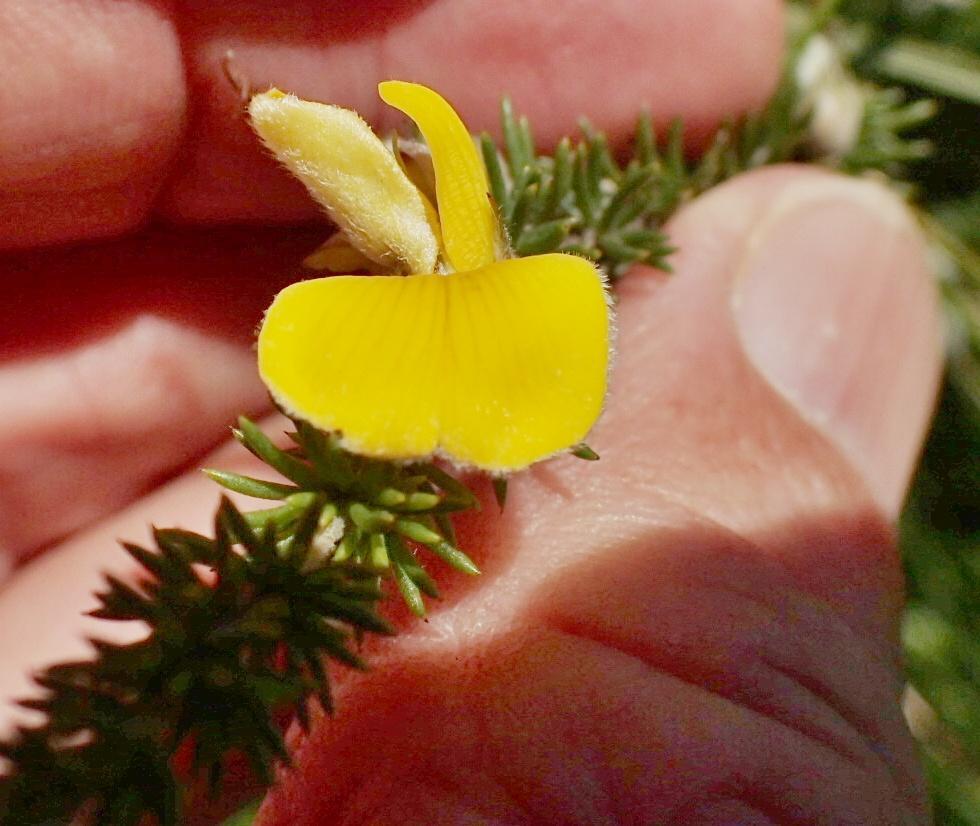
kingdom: Plantae
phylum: Tracheophyta
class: Magnoliopsida
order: Fabales
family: Fabaceae
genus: Aspalathus
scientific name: Aspalathus chortophila
